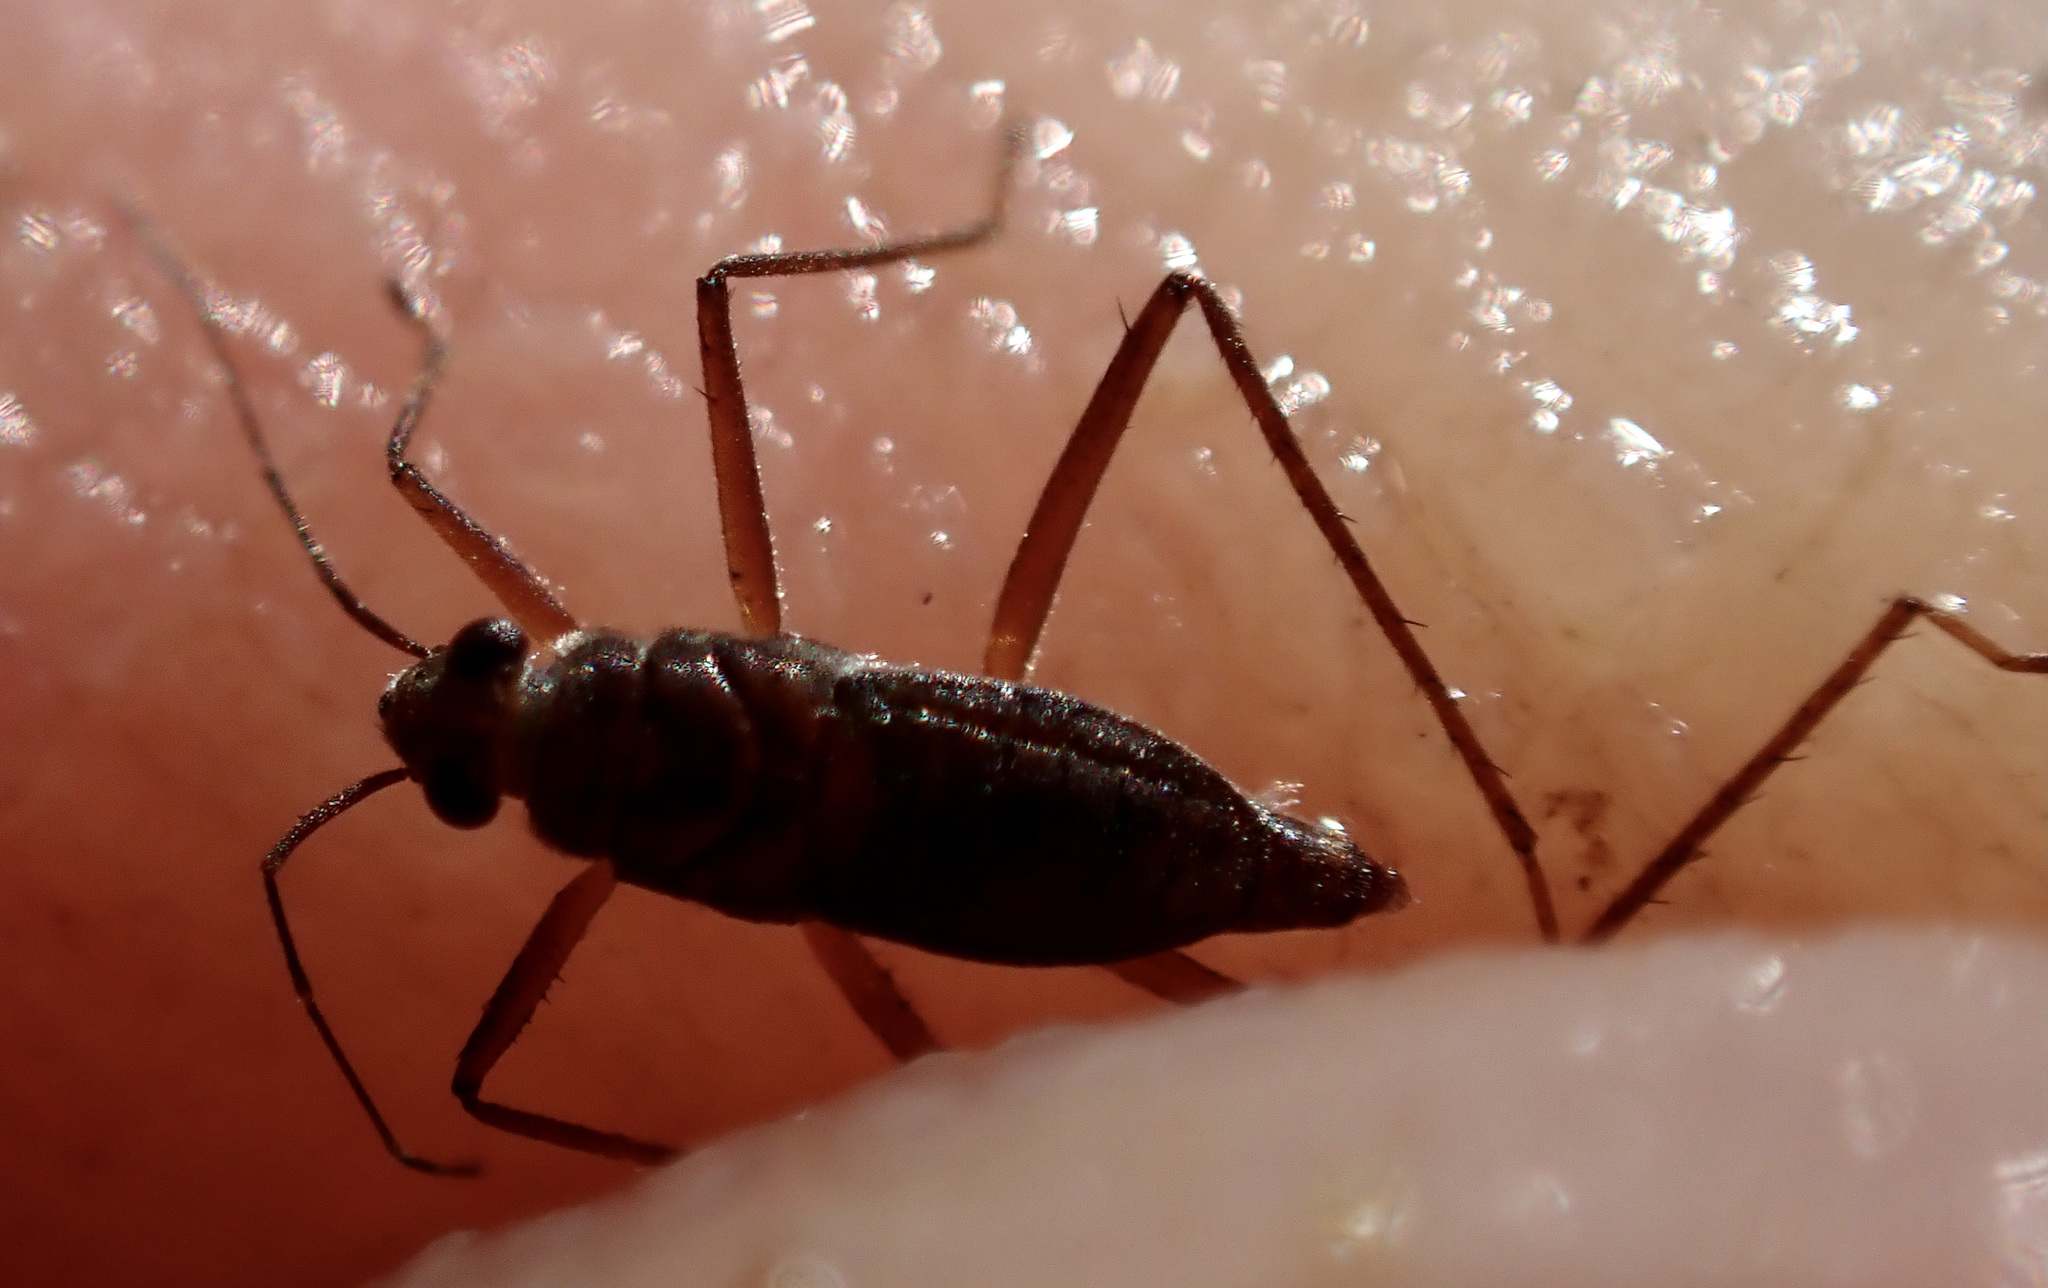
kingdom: Animalia
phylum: Arthropoda
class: Insecta
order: Hemiptera
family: Mesoveliidae
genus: Mesovelia
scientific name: Mesovelia vittigera
